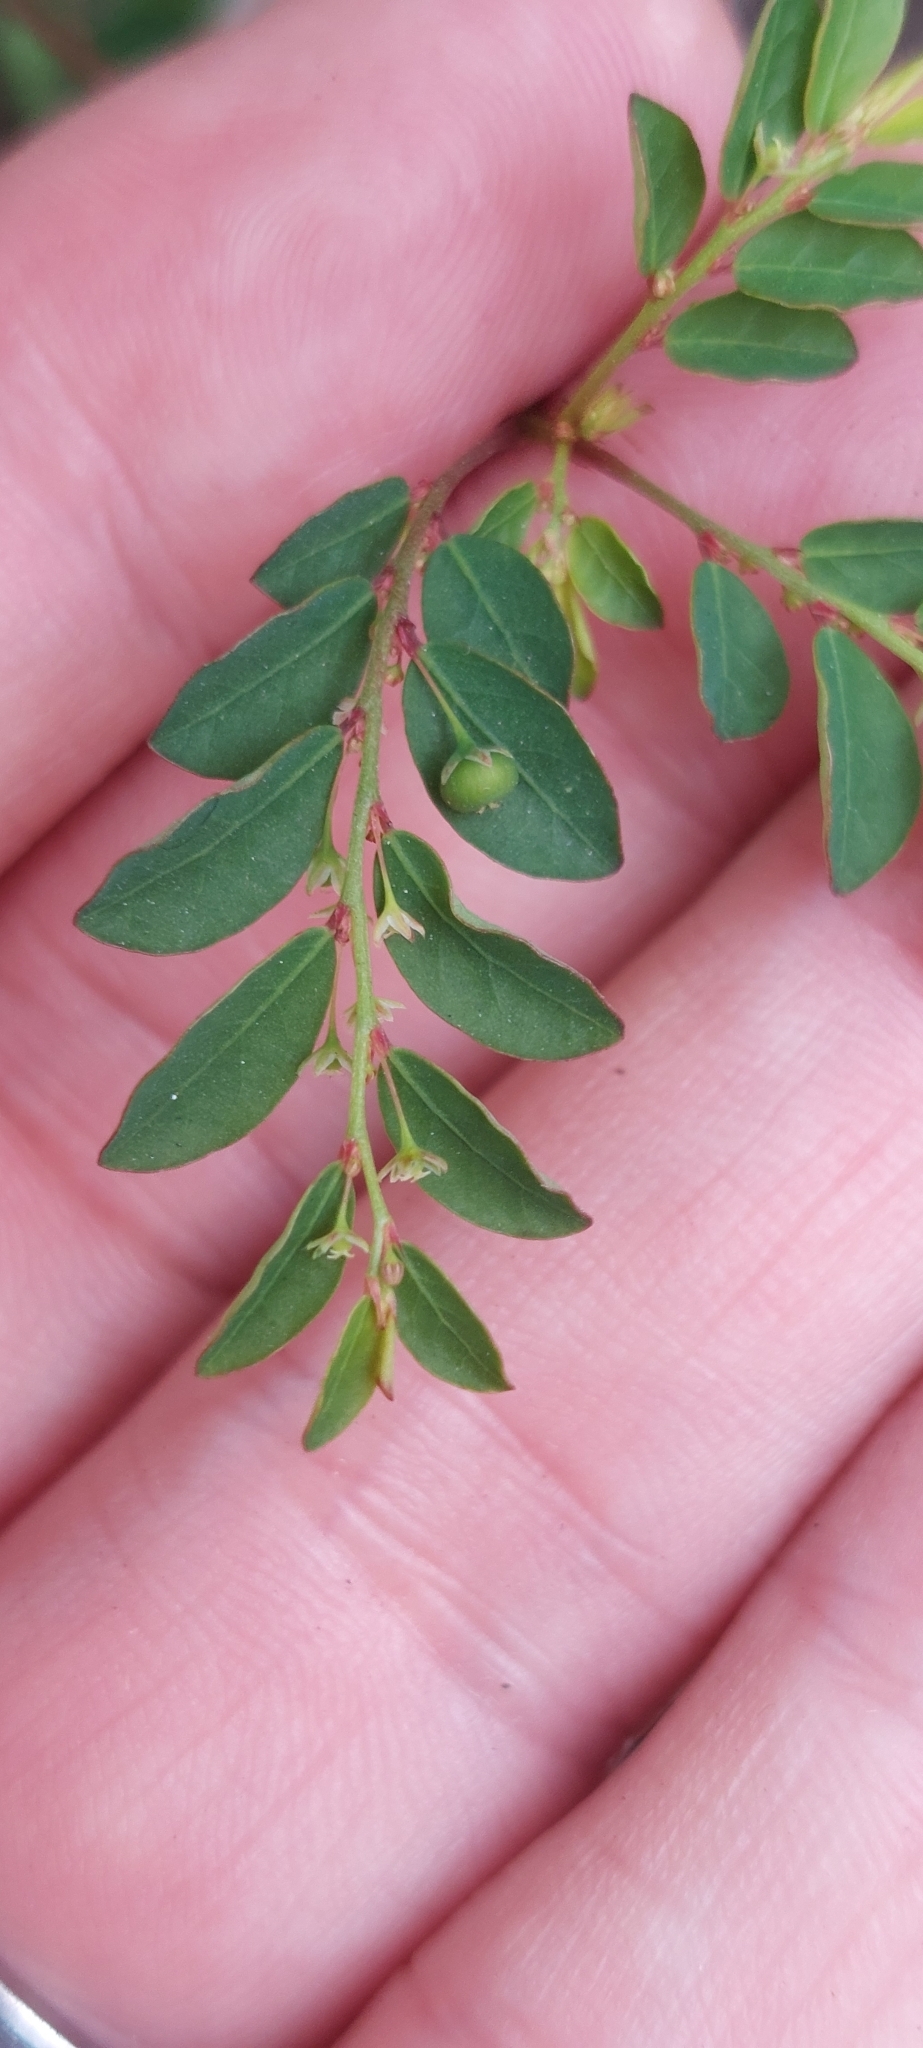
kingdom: Plantae
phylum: Tracheophyta
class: Magnoliopsida
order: Malpighiales
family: Phyllanthaceae
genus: Phyllanthus
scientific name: Phyllanthus tenellus
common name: Mascarene island leaf-flower
